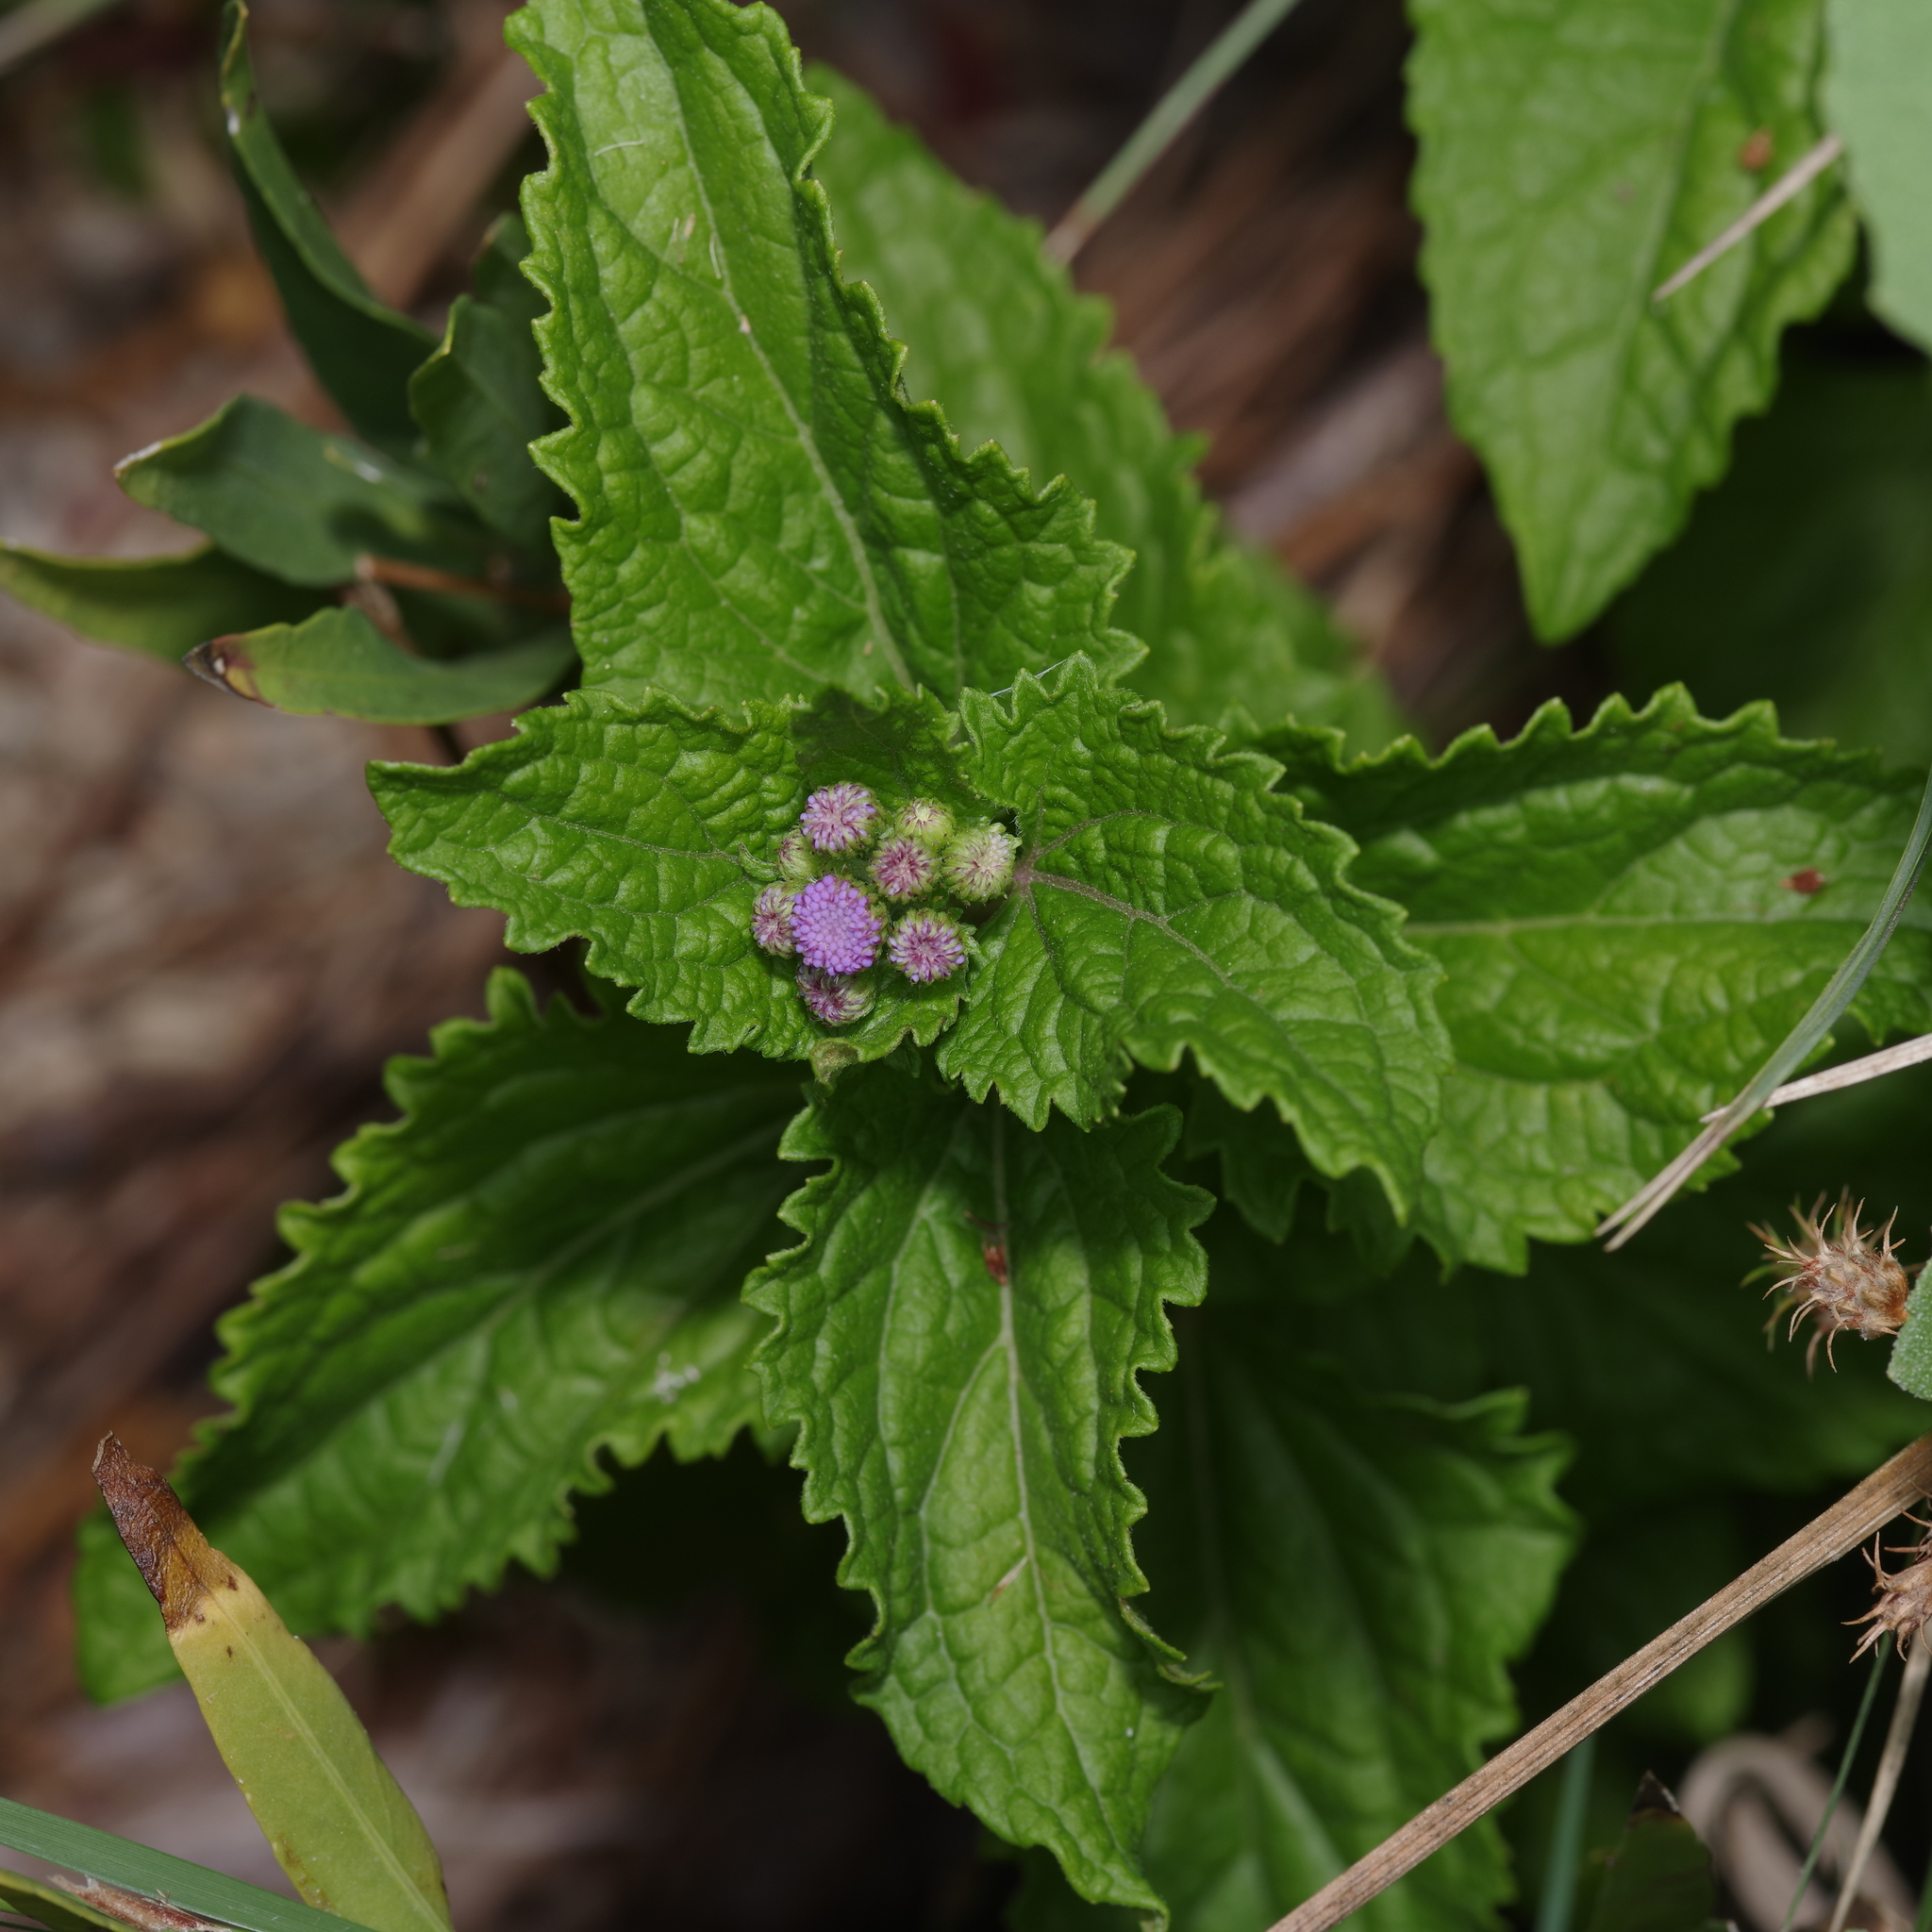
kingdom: Plantae
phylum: Tracheophyta
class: Magnoliopsida
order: Asterales
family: Asteraceae
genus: Conoclinium
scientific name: Conoclinium coelestinum
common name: Blue mistflower
